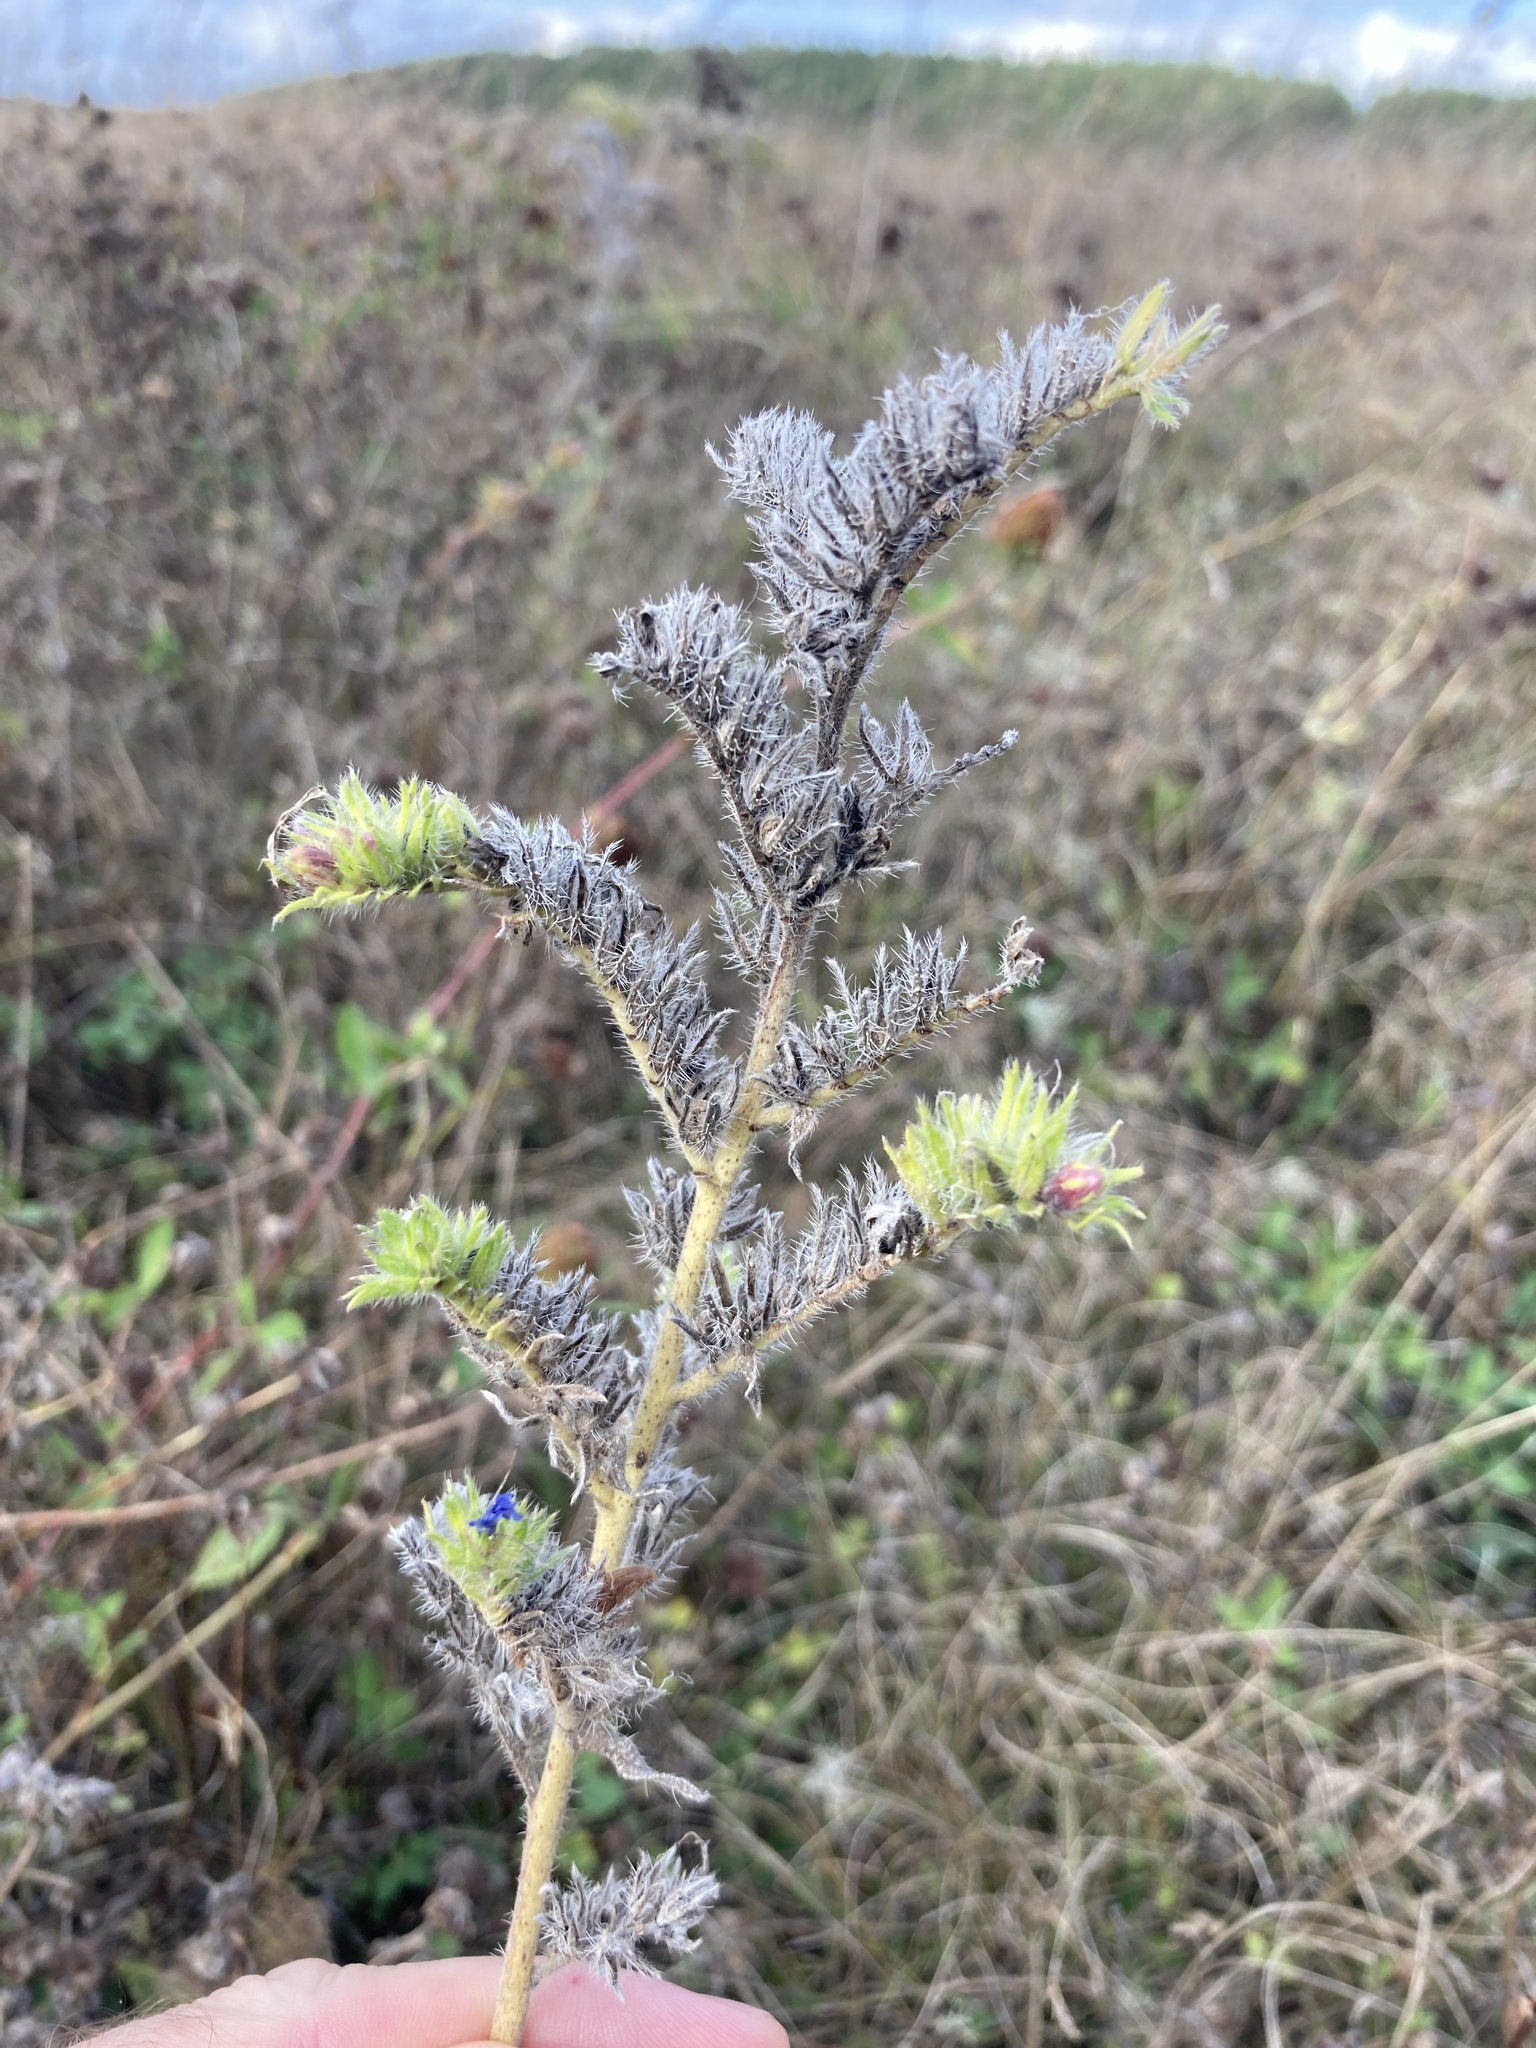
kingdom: Plantae
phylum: Tracheophyta
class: Magnoliopsida
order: Boraginales
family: Boraginaceae
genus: Echium
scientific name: Echium vulgare
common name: Common viper's bugloss
